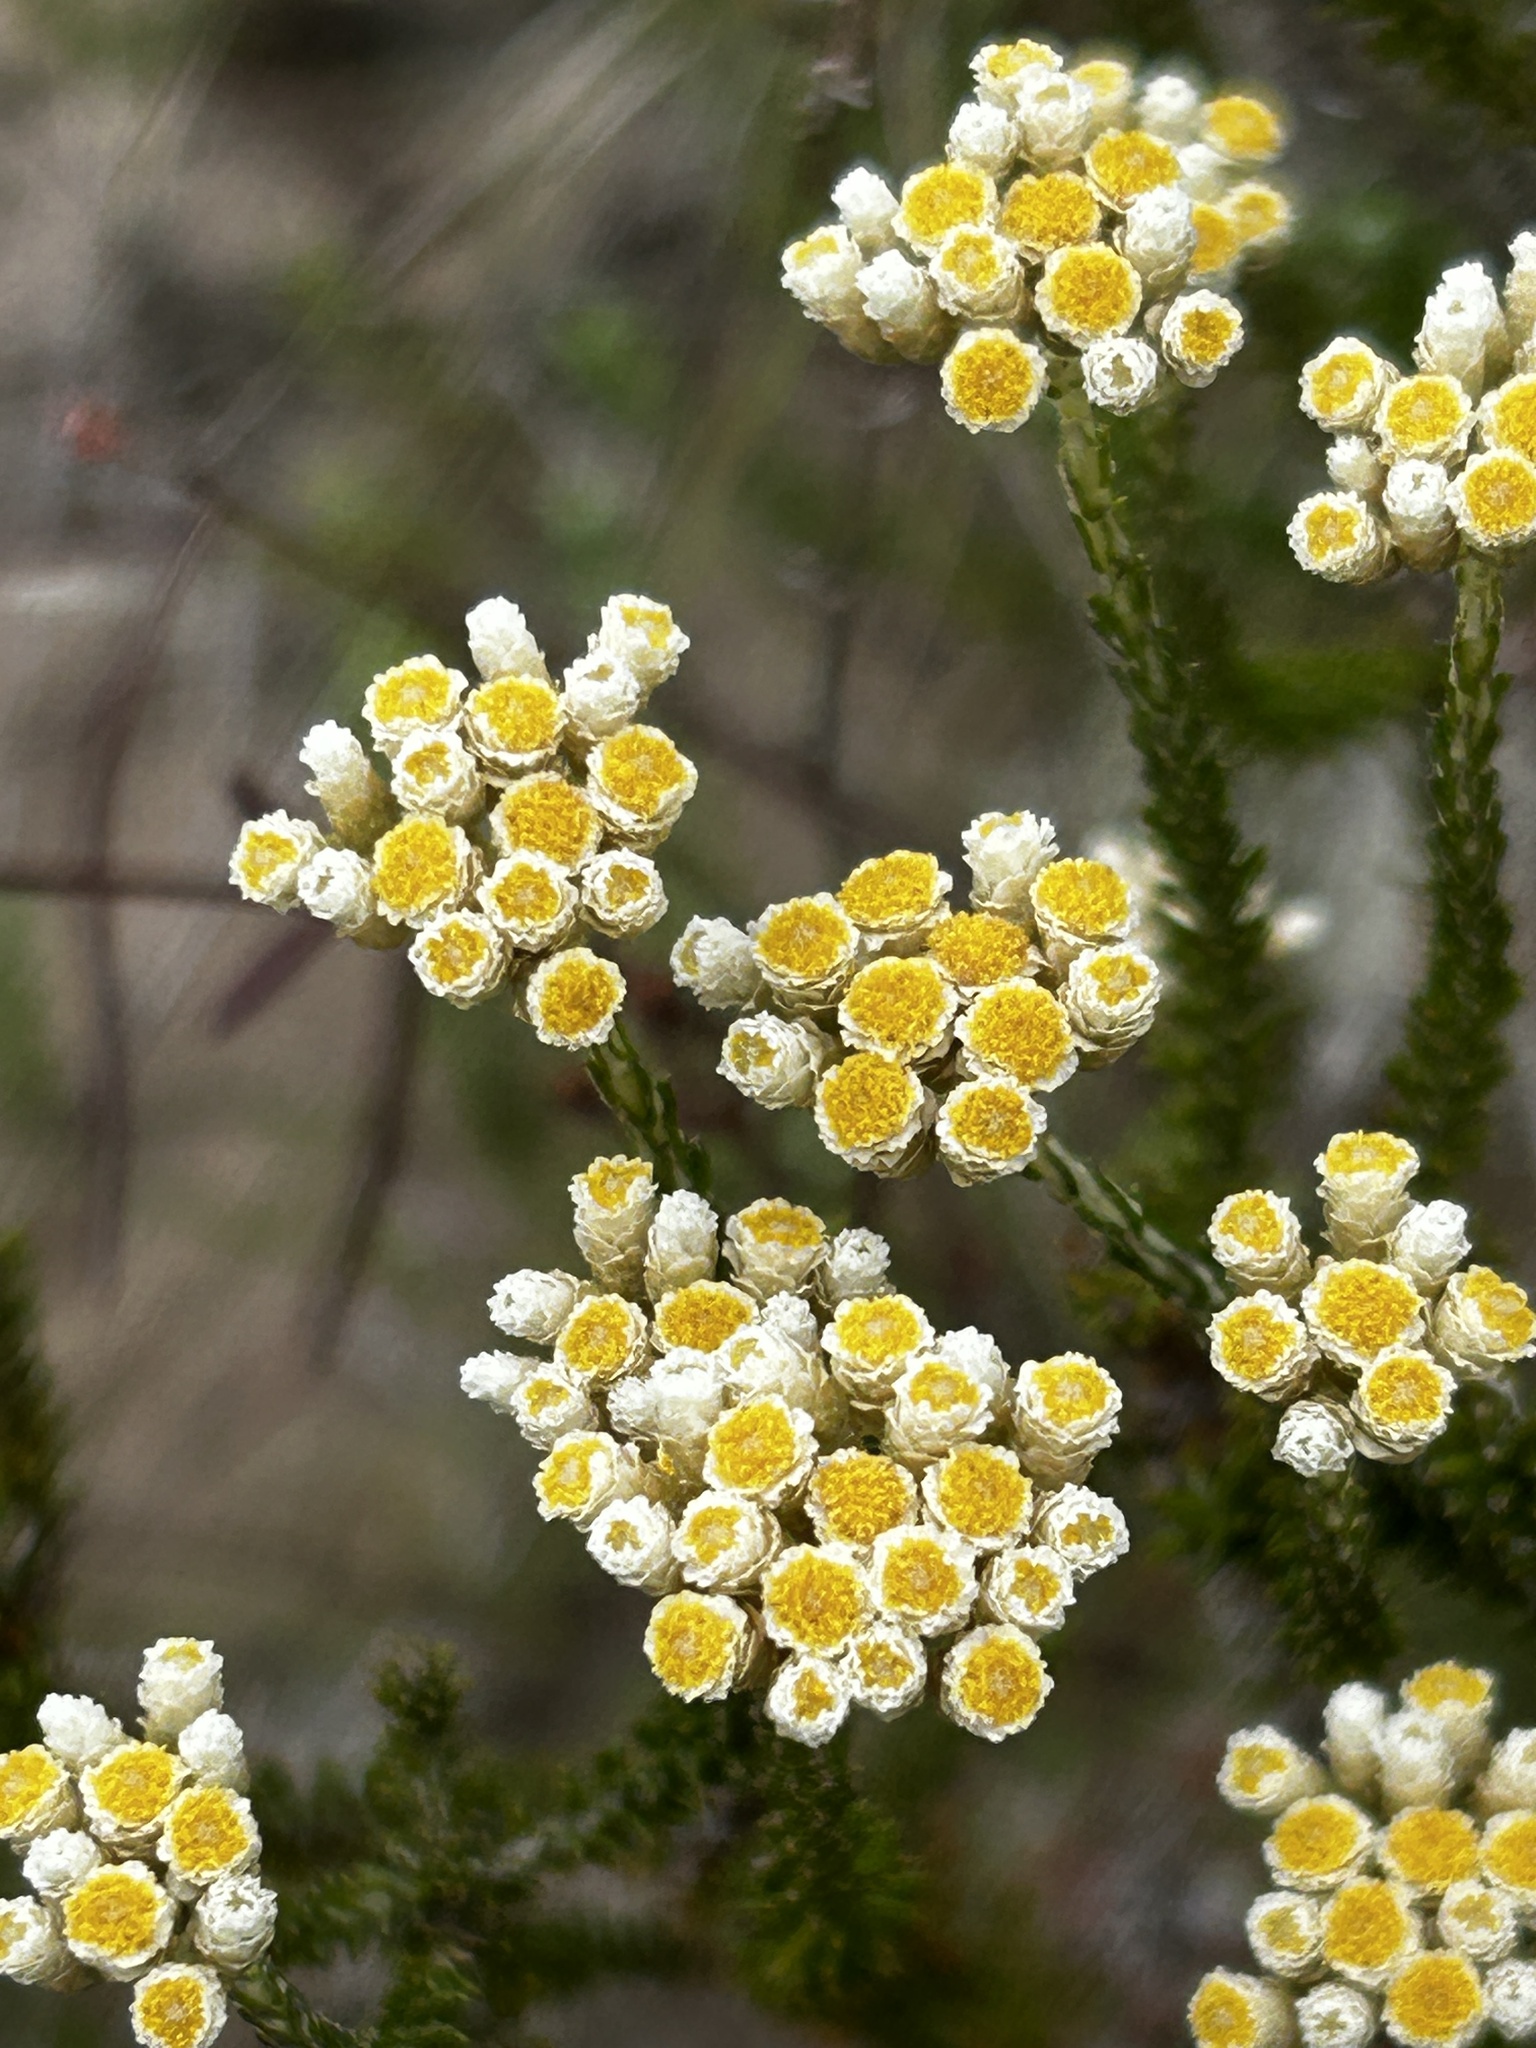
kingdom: Plantae
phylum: Tracheophyta
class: Magnoliopsida
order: Asterales
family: Asteraceae
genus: Helichrysum
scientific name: Helichrysum teretifolium
